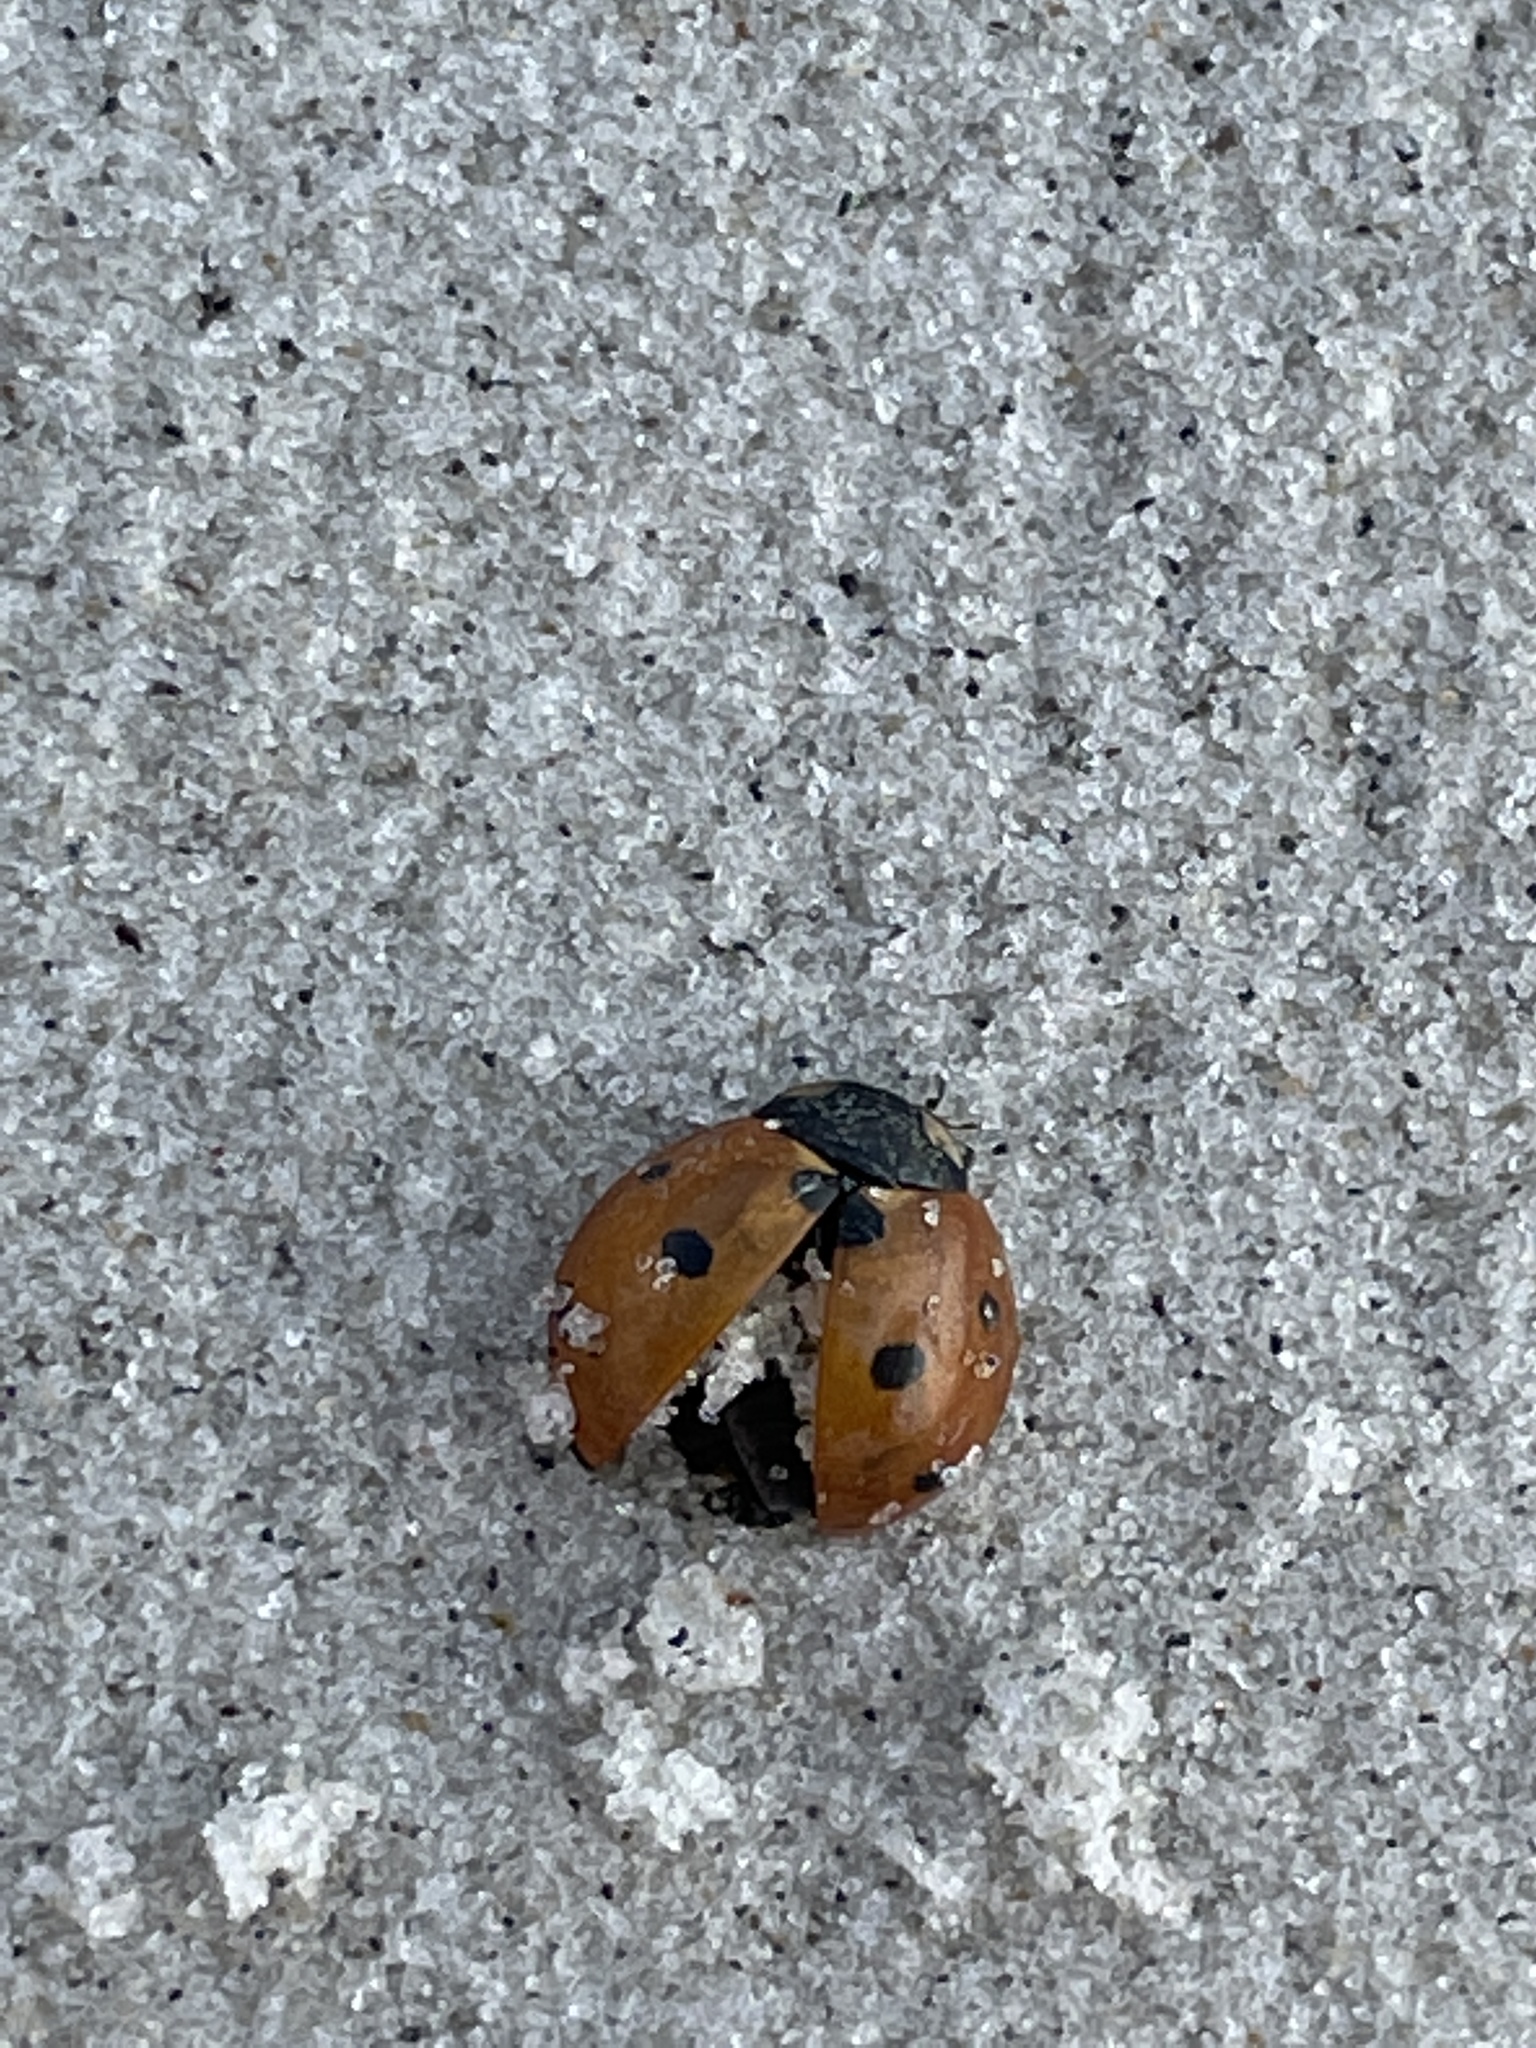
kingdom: Animalia
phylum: Arthropoda
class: Insecta
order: Coleoptera
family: Coccinellidae
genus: Coccinella
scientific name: Coccinella septempunctata
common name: Sevenspotted lady beetle
